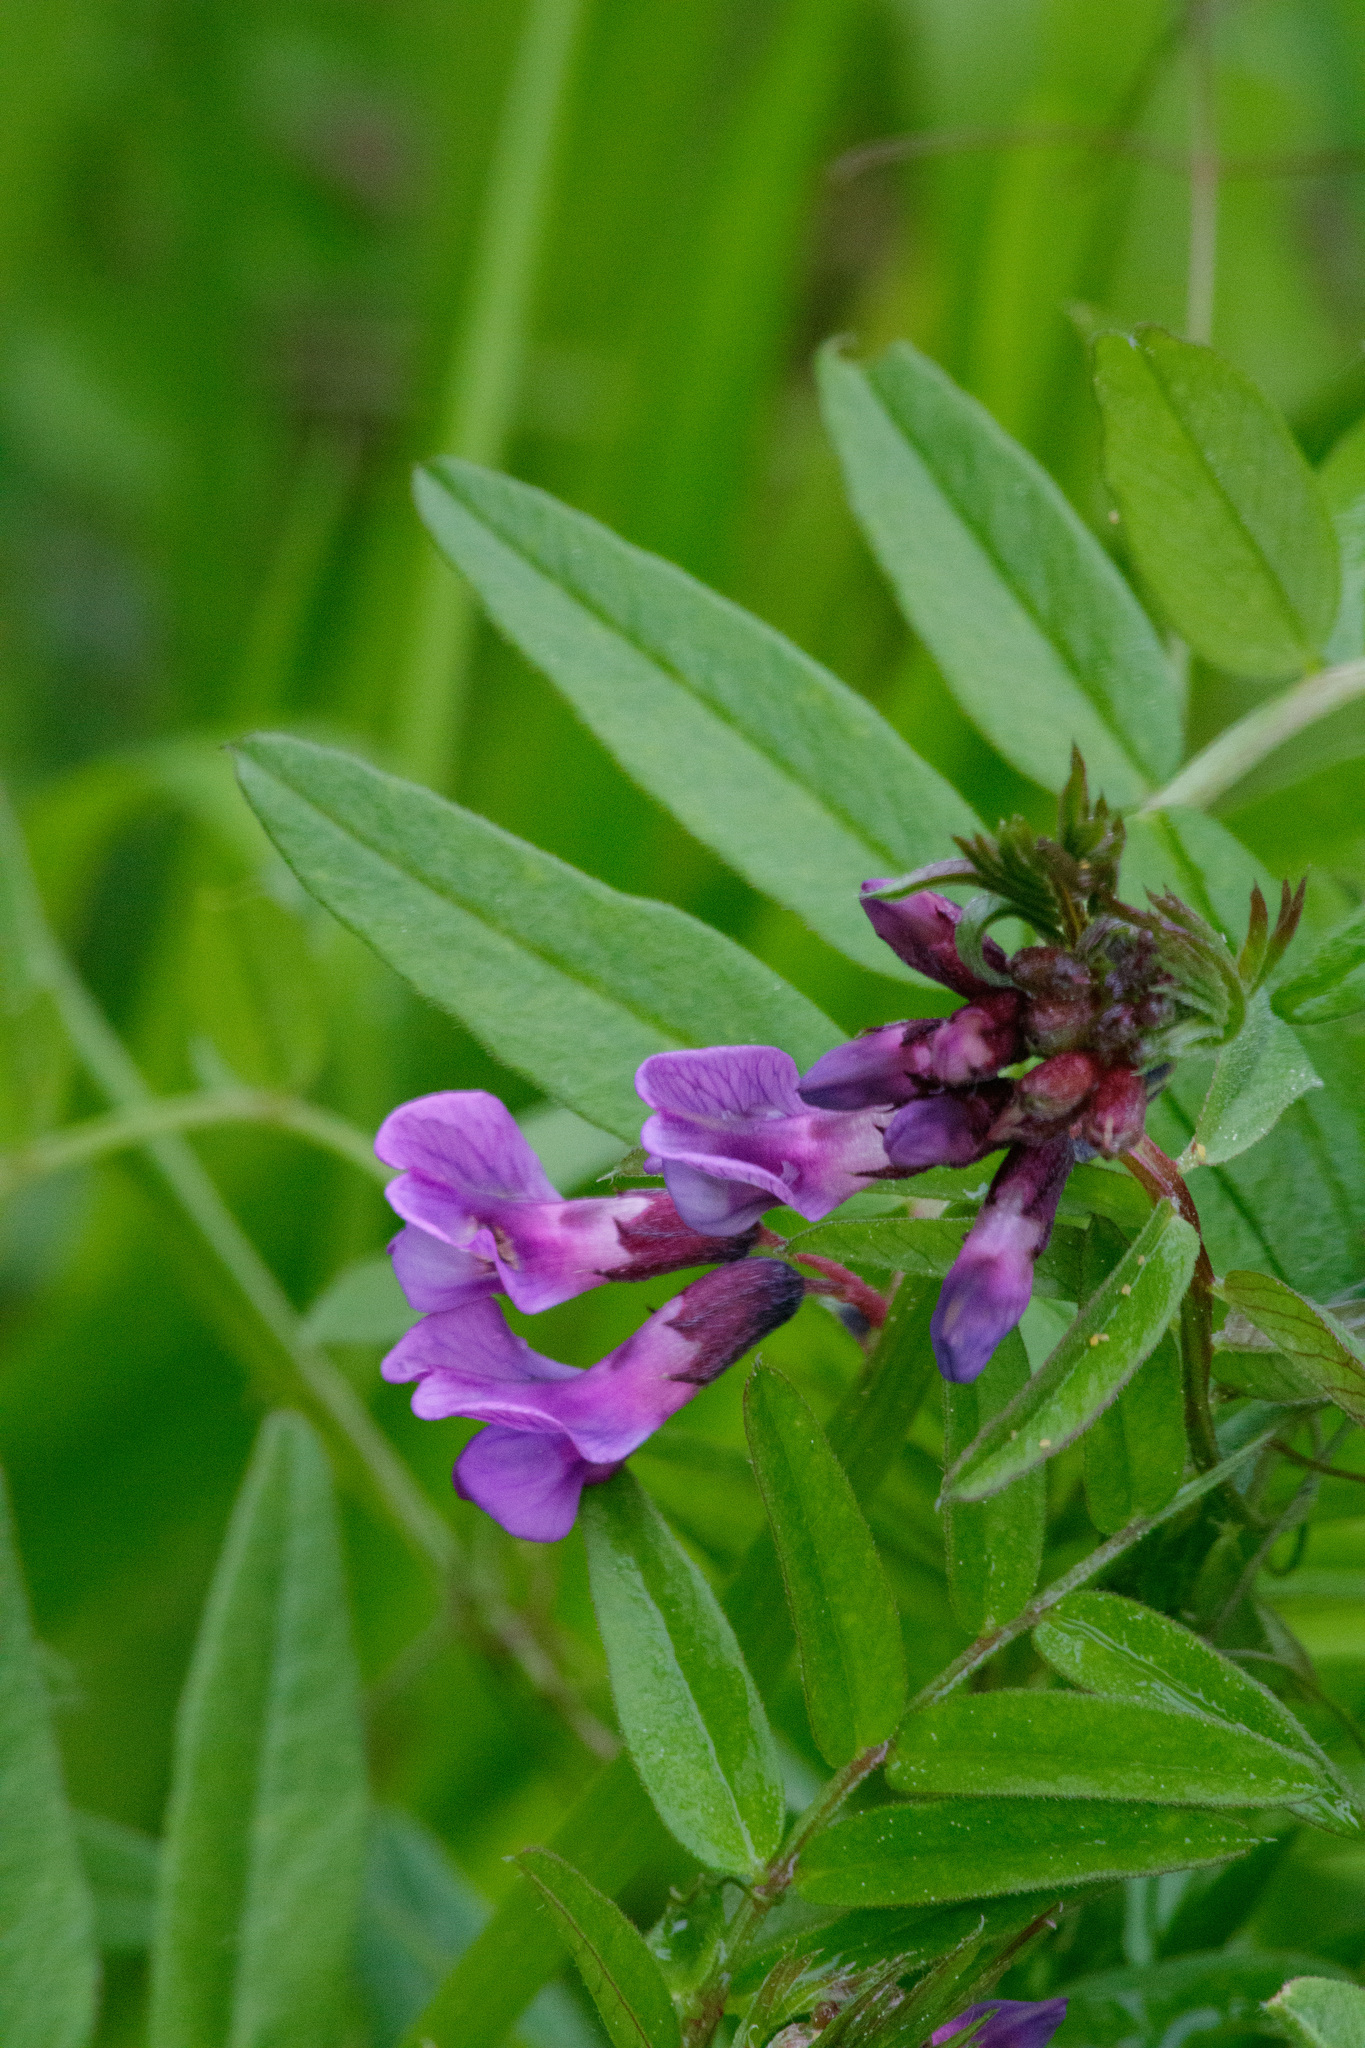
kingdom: Plantae
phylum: Tracheophyta
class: Magnoliopsida
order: Fabales
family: Fabaceae
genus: Vicia
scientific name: Vicia sepium
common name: Bush vetch
